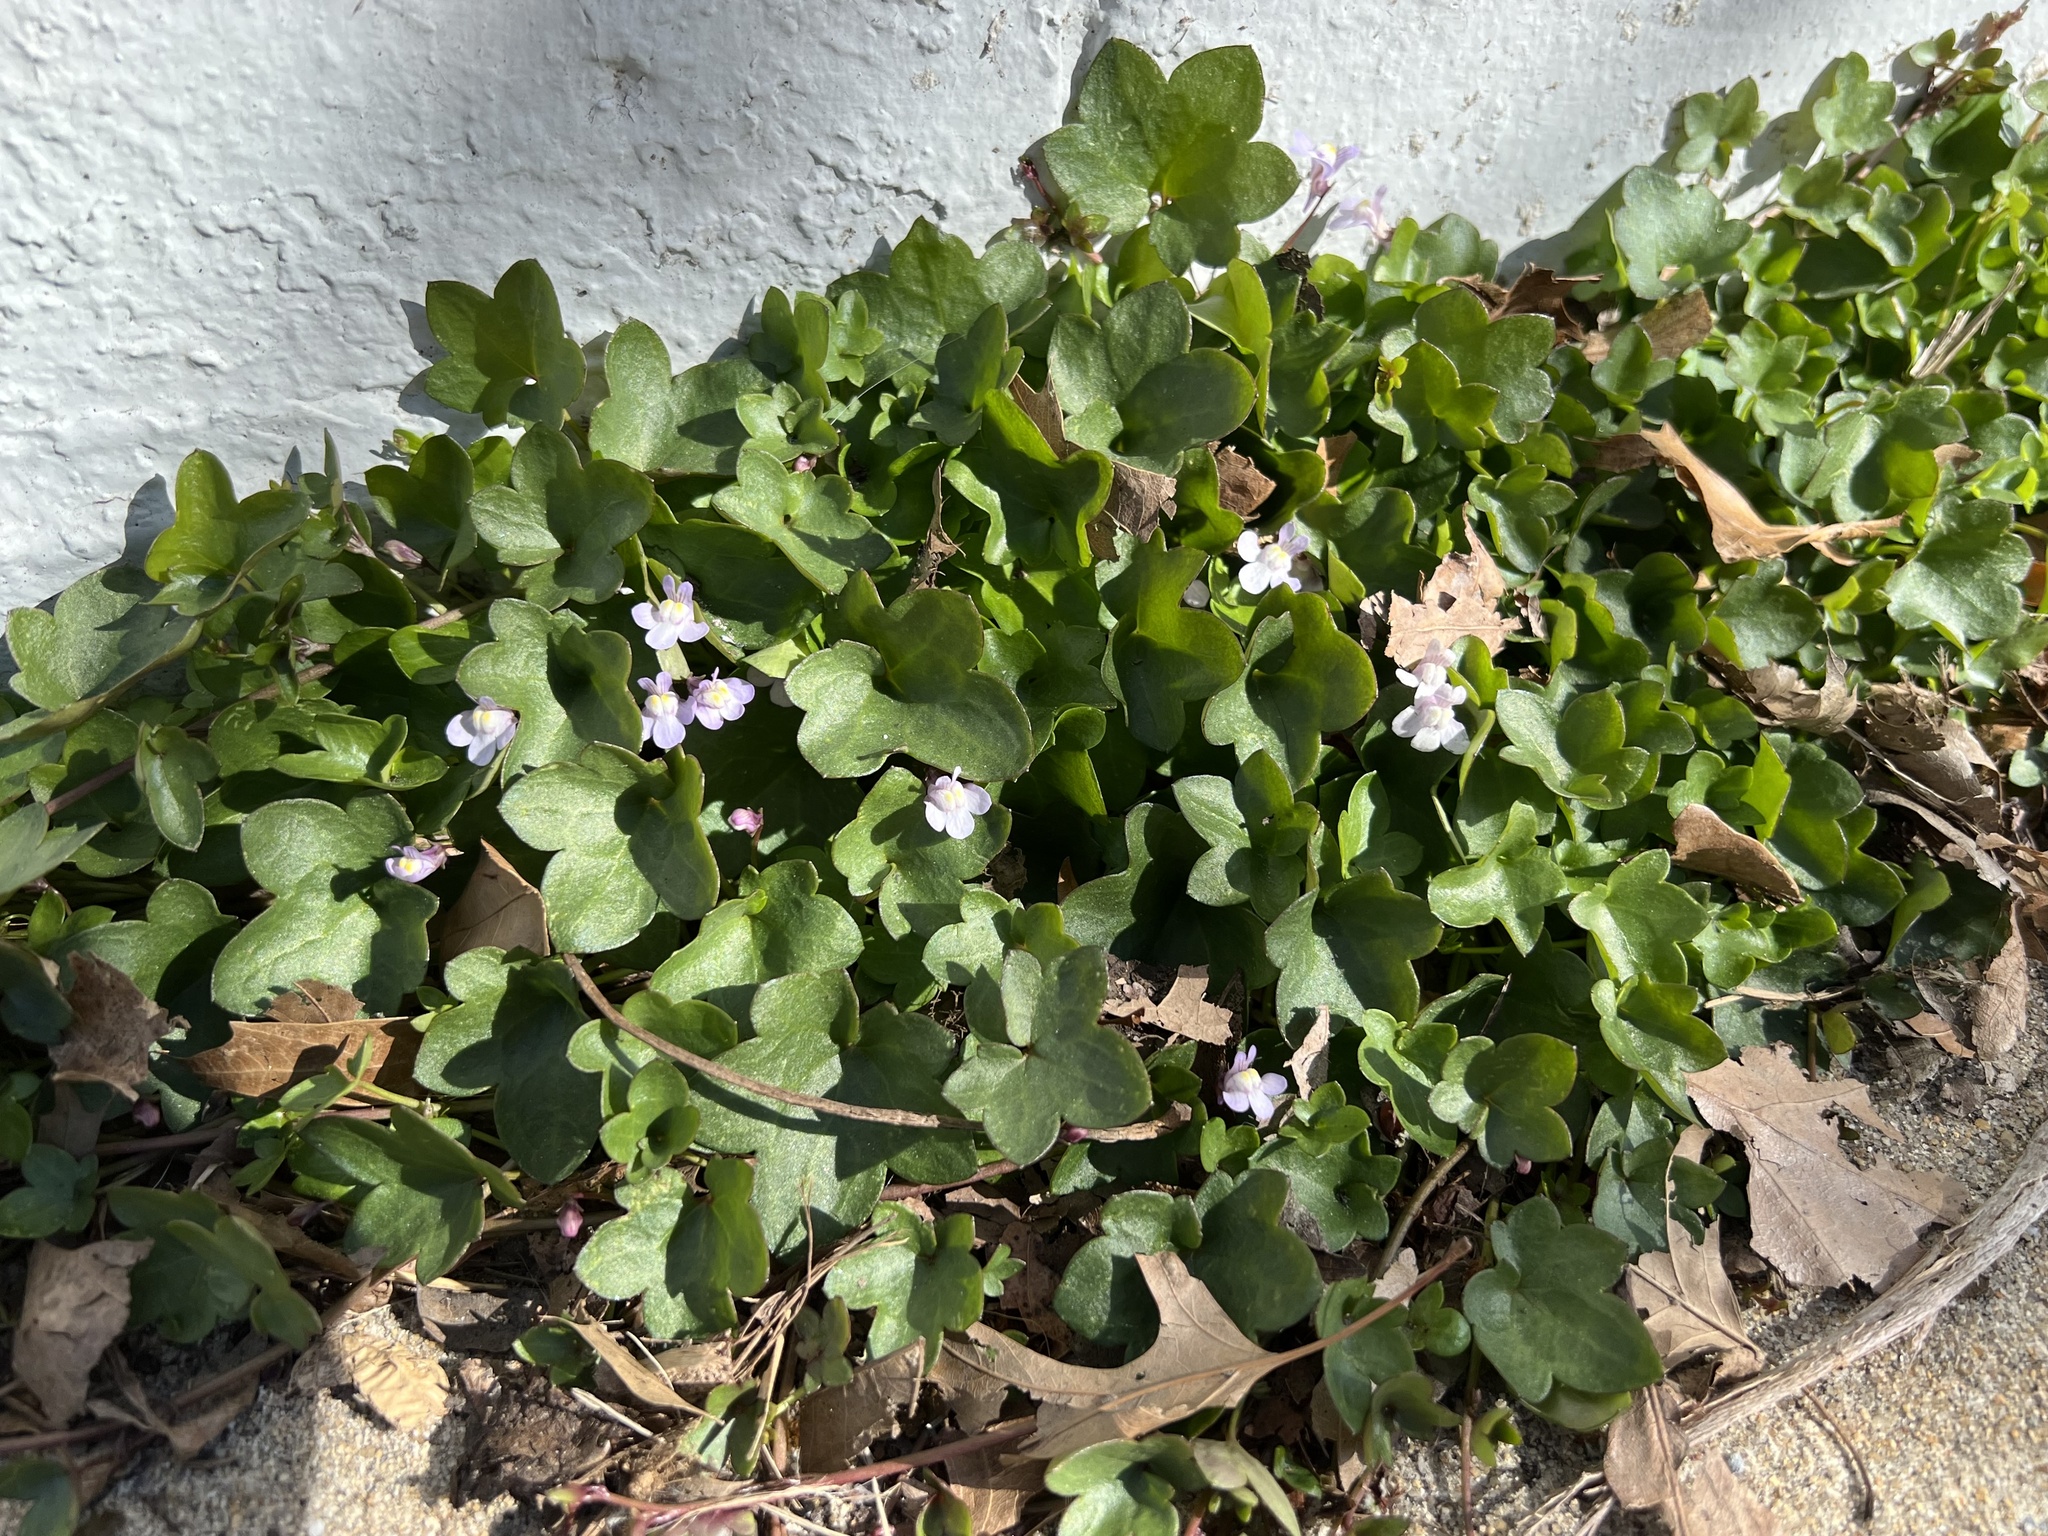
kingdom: Plantae
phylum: Tracheophyta
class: Magnoliopsida
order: Lamiales
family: Plantaginaceae
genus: Cymbalaria
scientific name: Cymbalaria muralis
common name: Ivy-leaved toadflax
